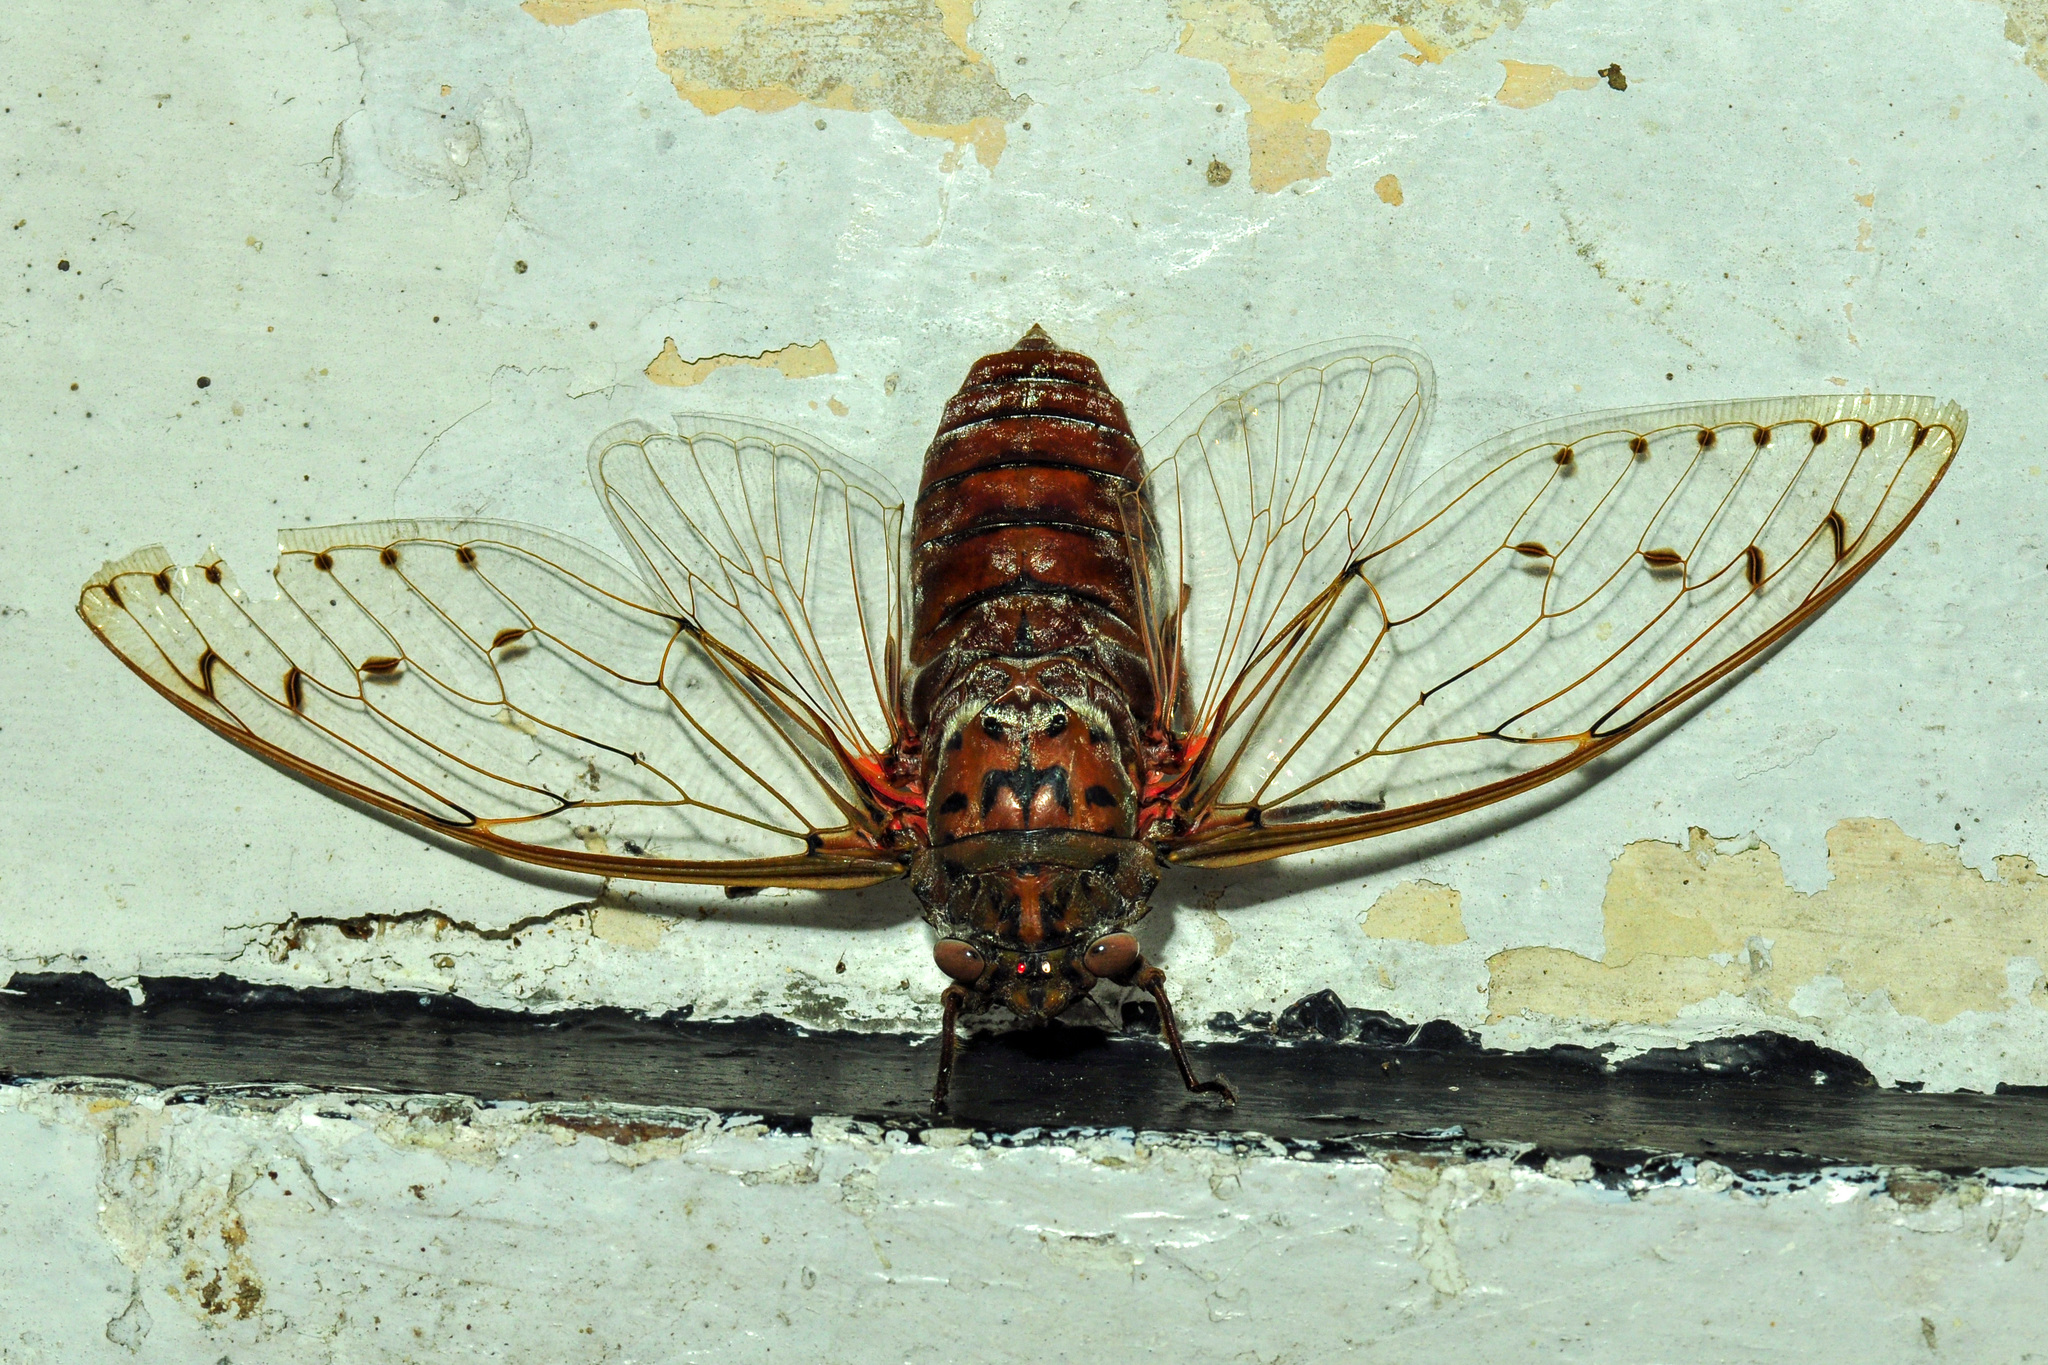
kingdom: Animalia
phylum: Arthropoda
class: Insecta
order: Hemiptera
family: Cicadidae
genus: Megapomponia
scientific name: Megapomponia imperatoria
